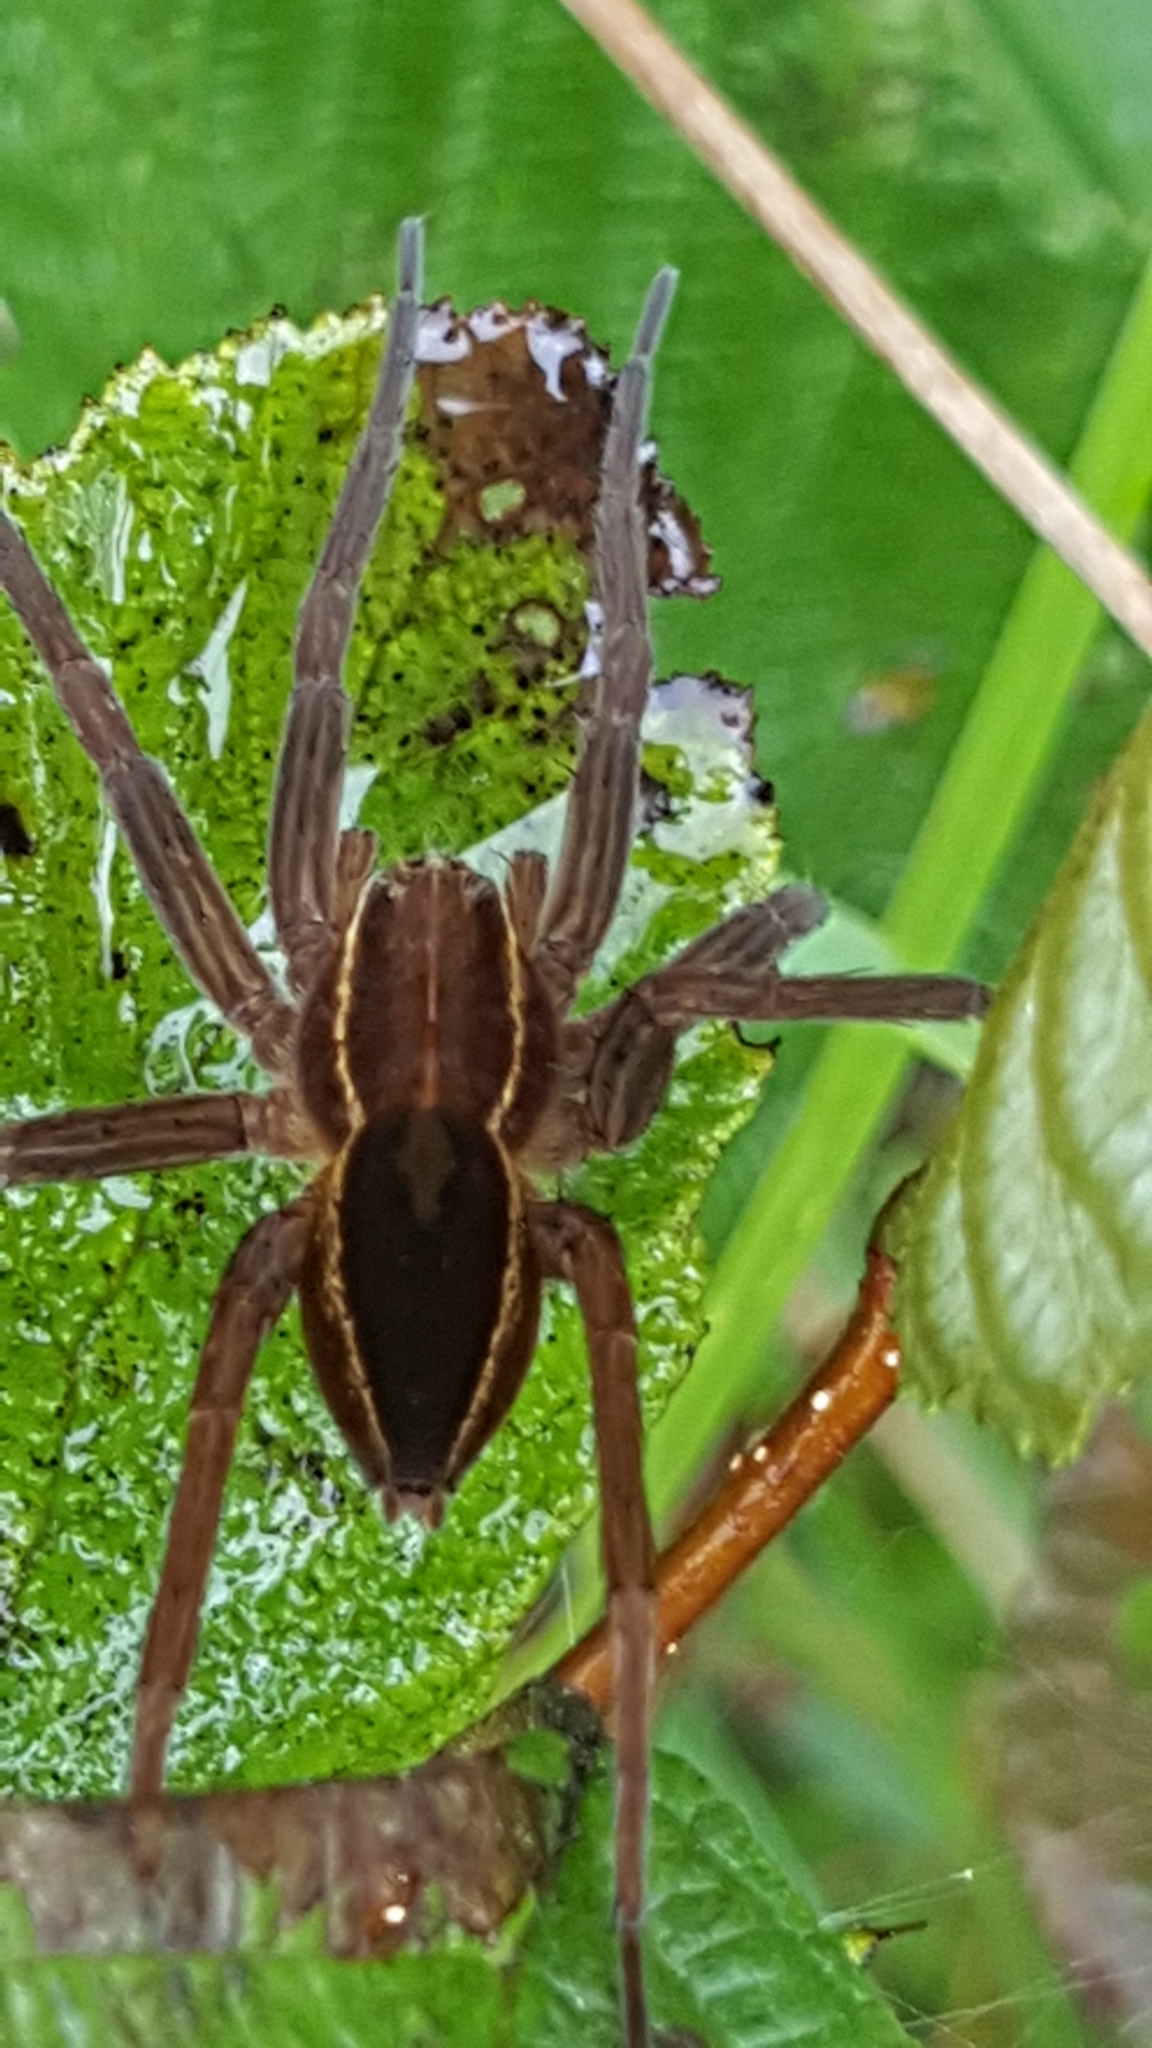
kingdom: Animalia
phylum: Arthropoda
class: Arachnida
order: Araneae
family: Pisauridae
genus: Dolomedes
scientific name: Dolomedes striatus
